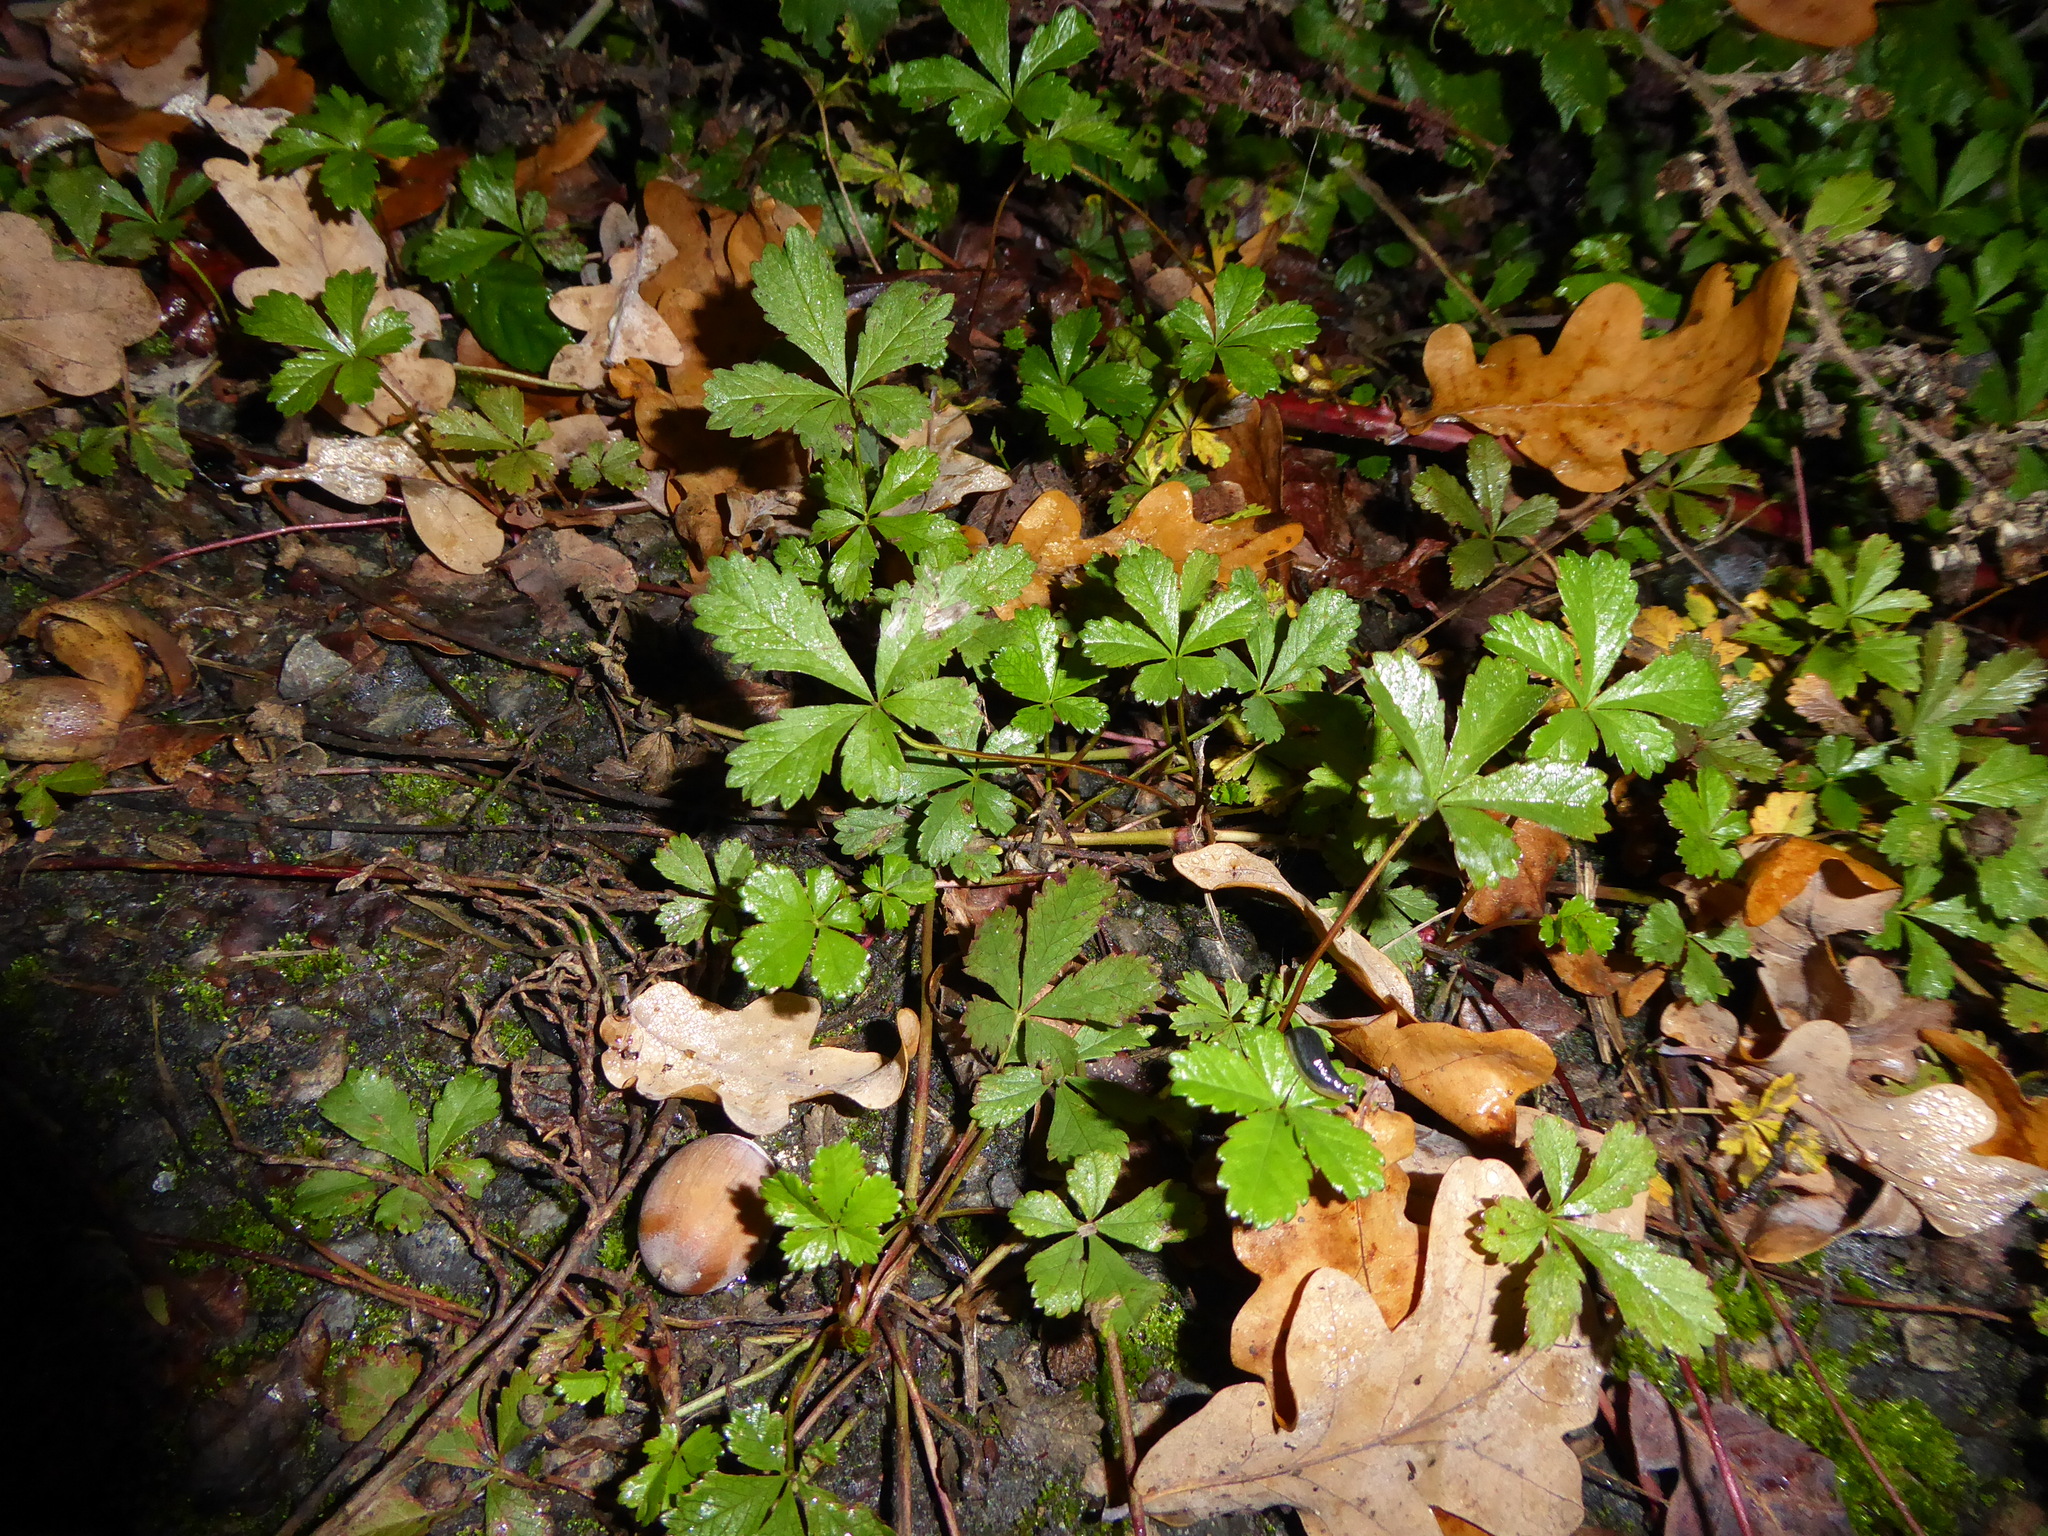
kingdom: Plantae
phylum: Tracheophyta
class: Magnoliopsida
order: Rosales
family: Rosaceae
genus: Potentilla
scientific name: Potentilla reptans
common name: Creeping cinquefoil
